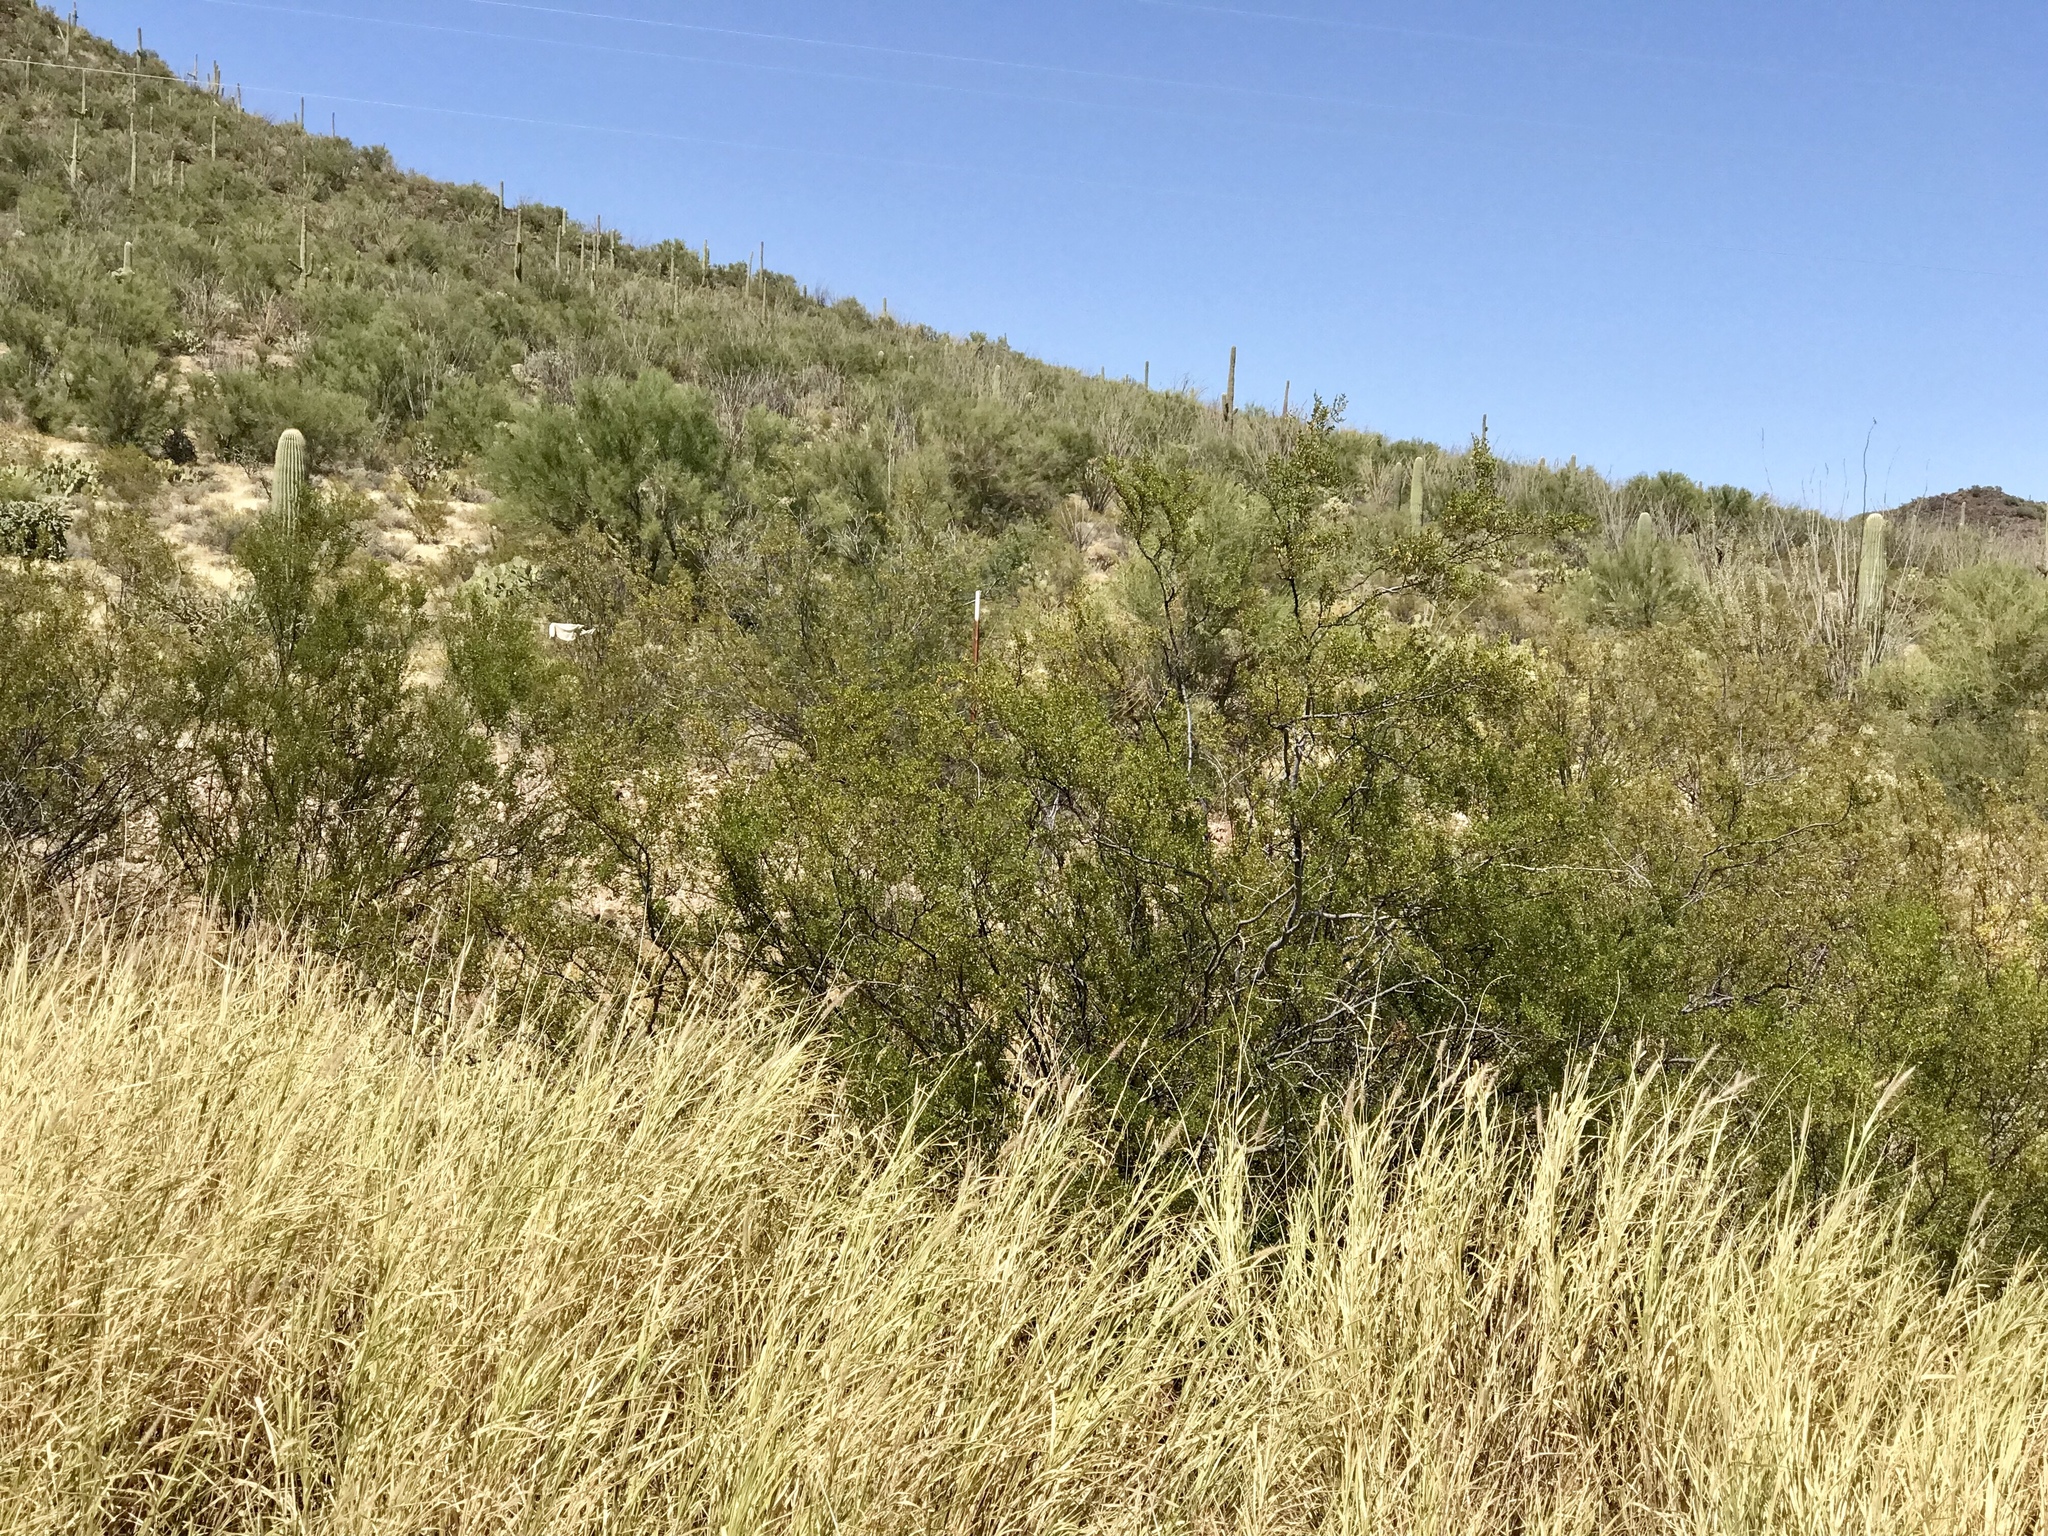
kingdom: Plantae
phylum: Tracheophyta
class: Magnoliopsida
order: Zygophyllales
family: Zygophyllaceae
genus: Larrea
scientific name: Larrea tridentata
